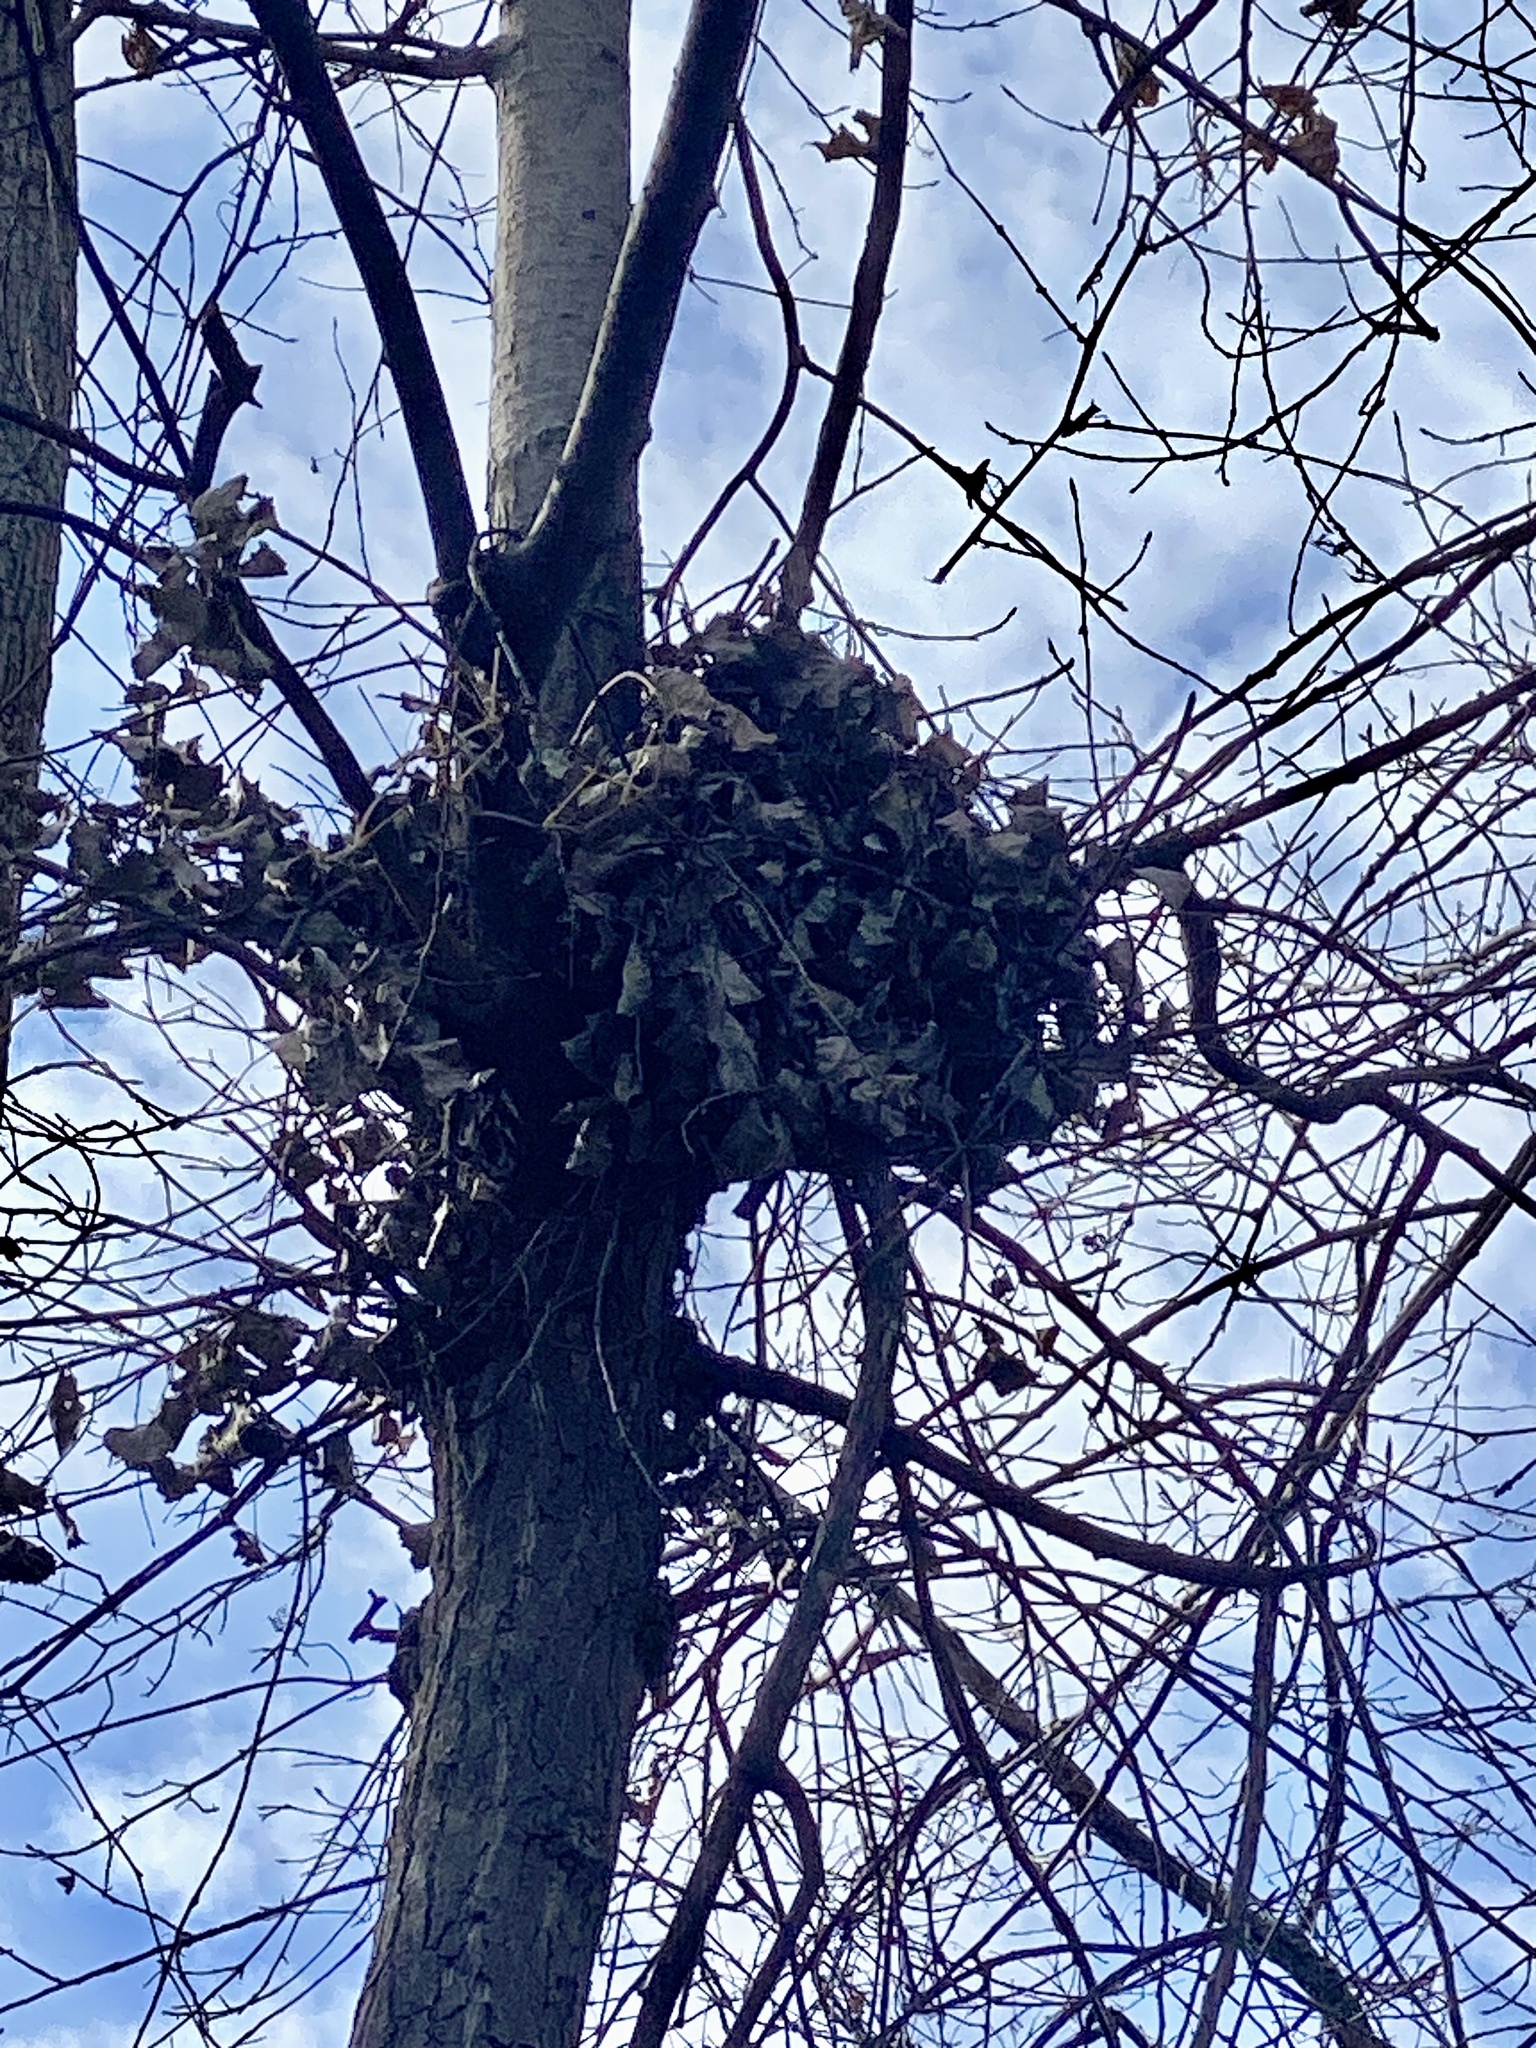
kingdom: Animalia
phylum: Chordata
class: Mammalia
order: Rodentia
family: Sciuridae
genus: Sciurus
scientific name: Sciurus carolinensis
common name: Eastern gray squirrel
